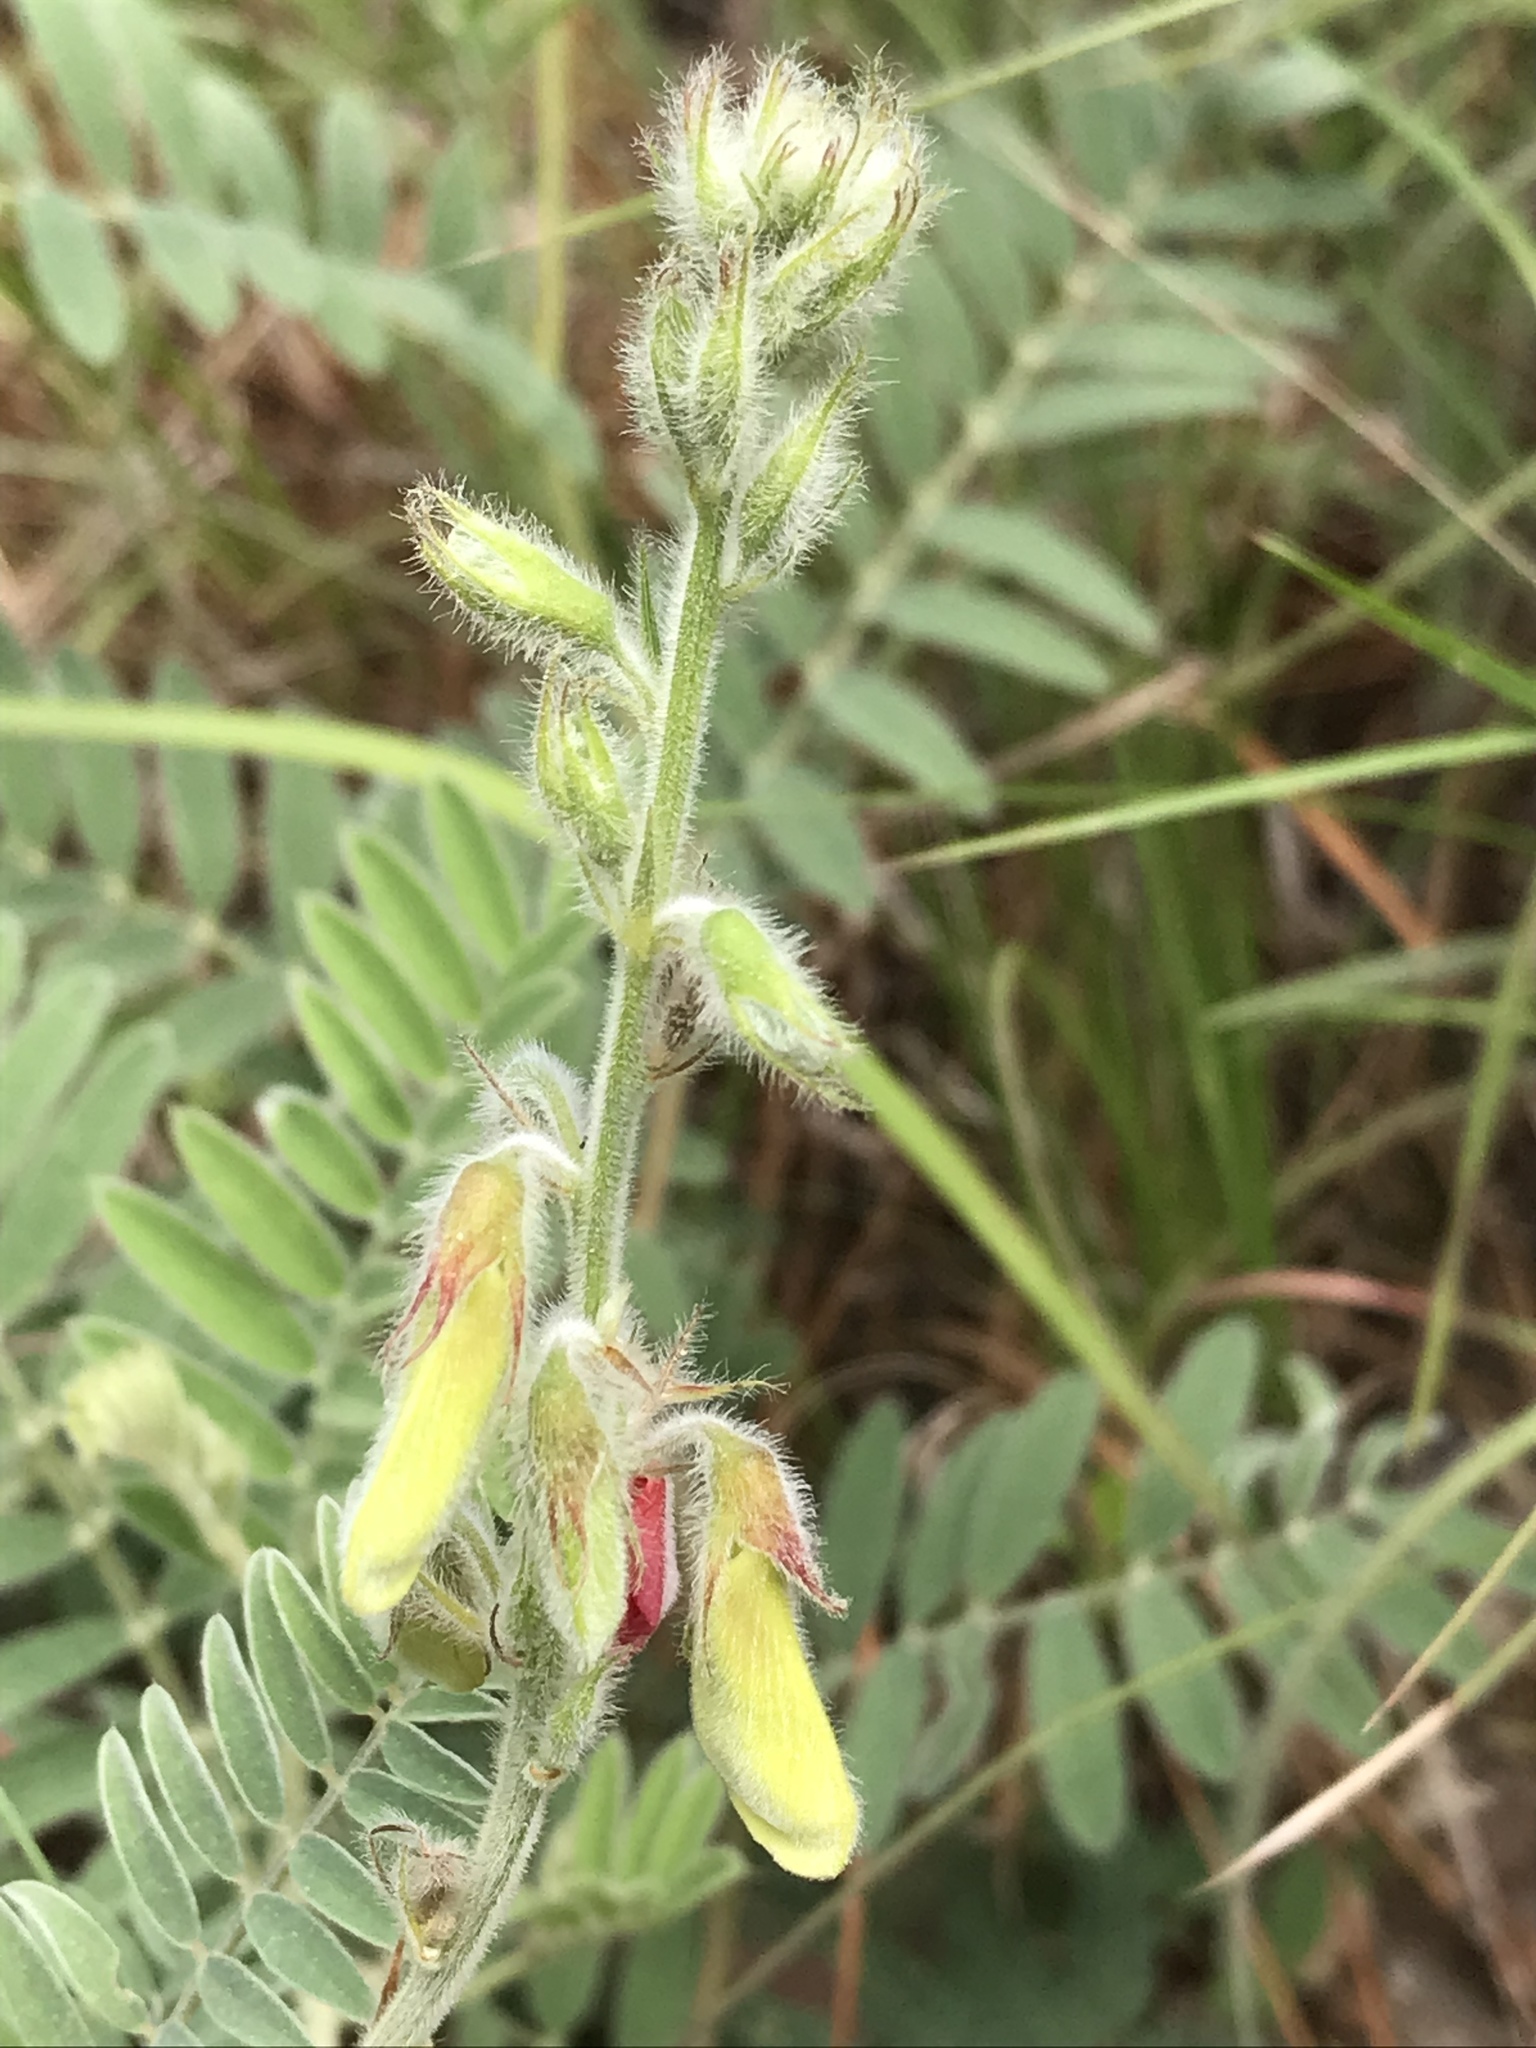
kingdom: Plantae
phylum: Tracheophyta
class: Magnoliopsida
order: Fabales
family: Fabaceae
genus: Tephrosia
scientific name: Tephrosia onobrychoides
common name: Multi-bloom hoary-pea
